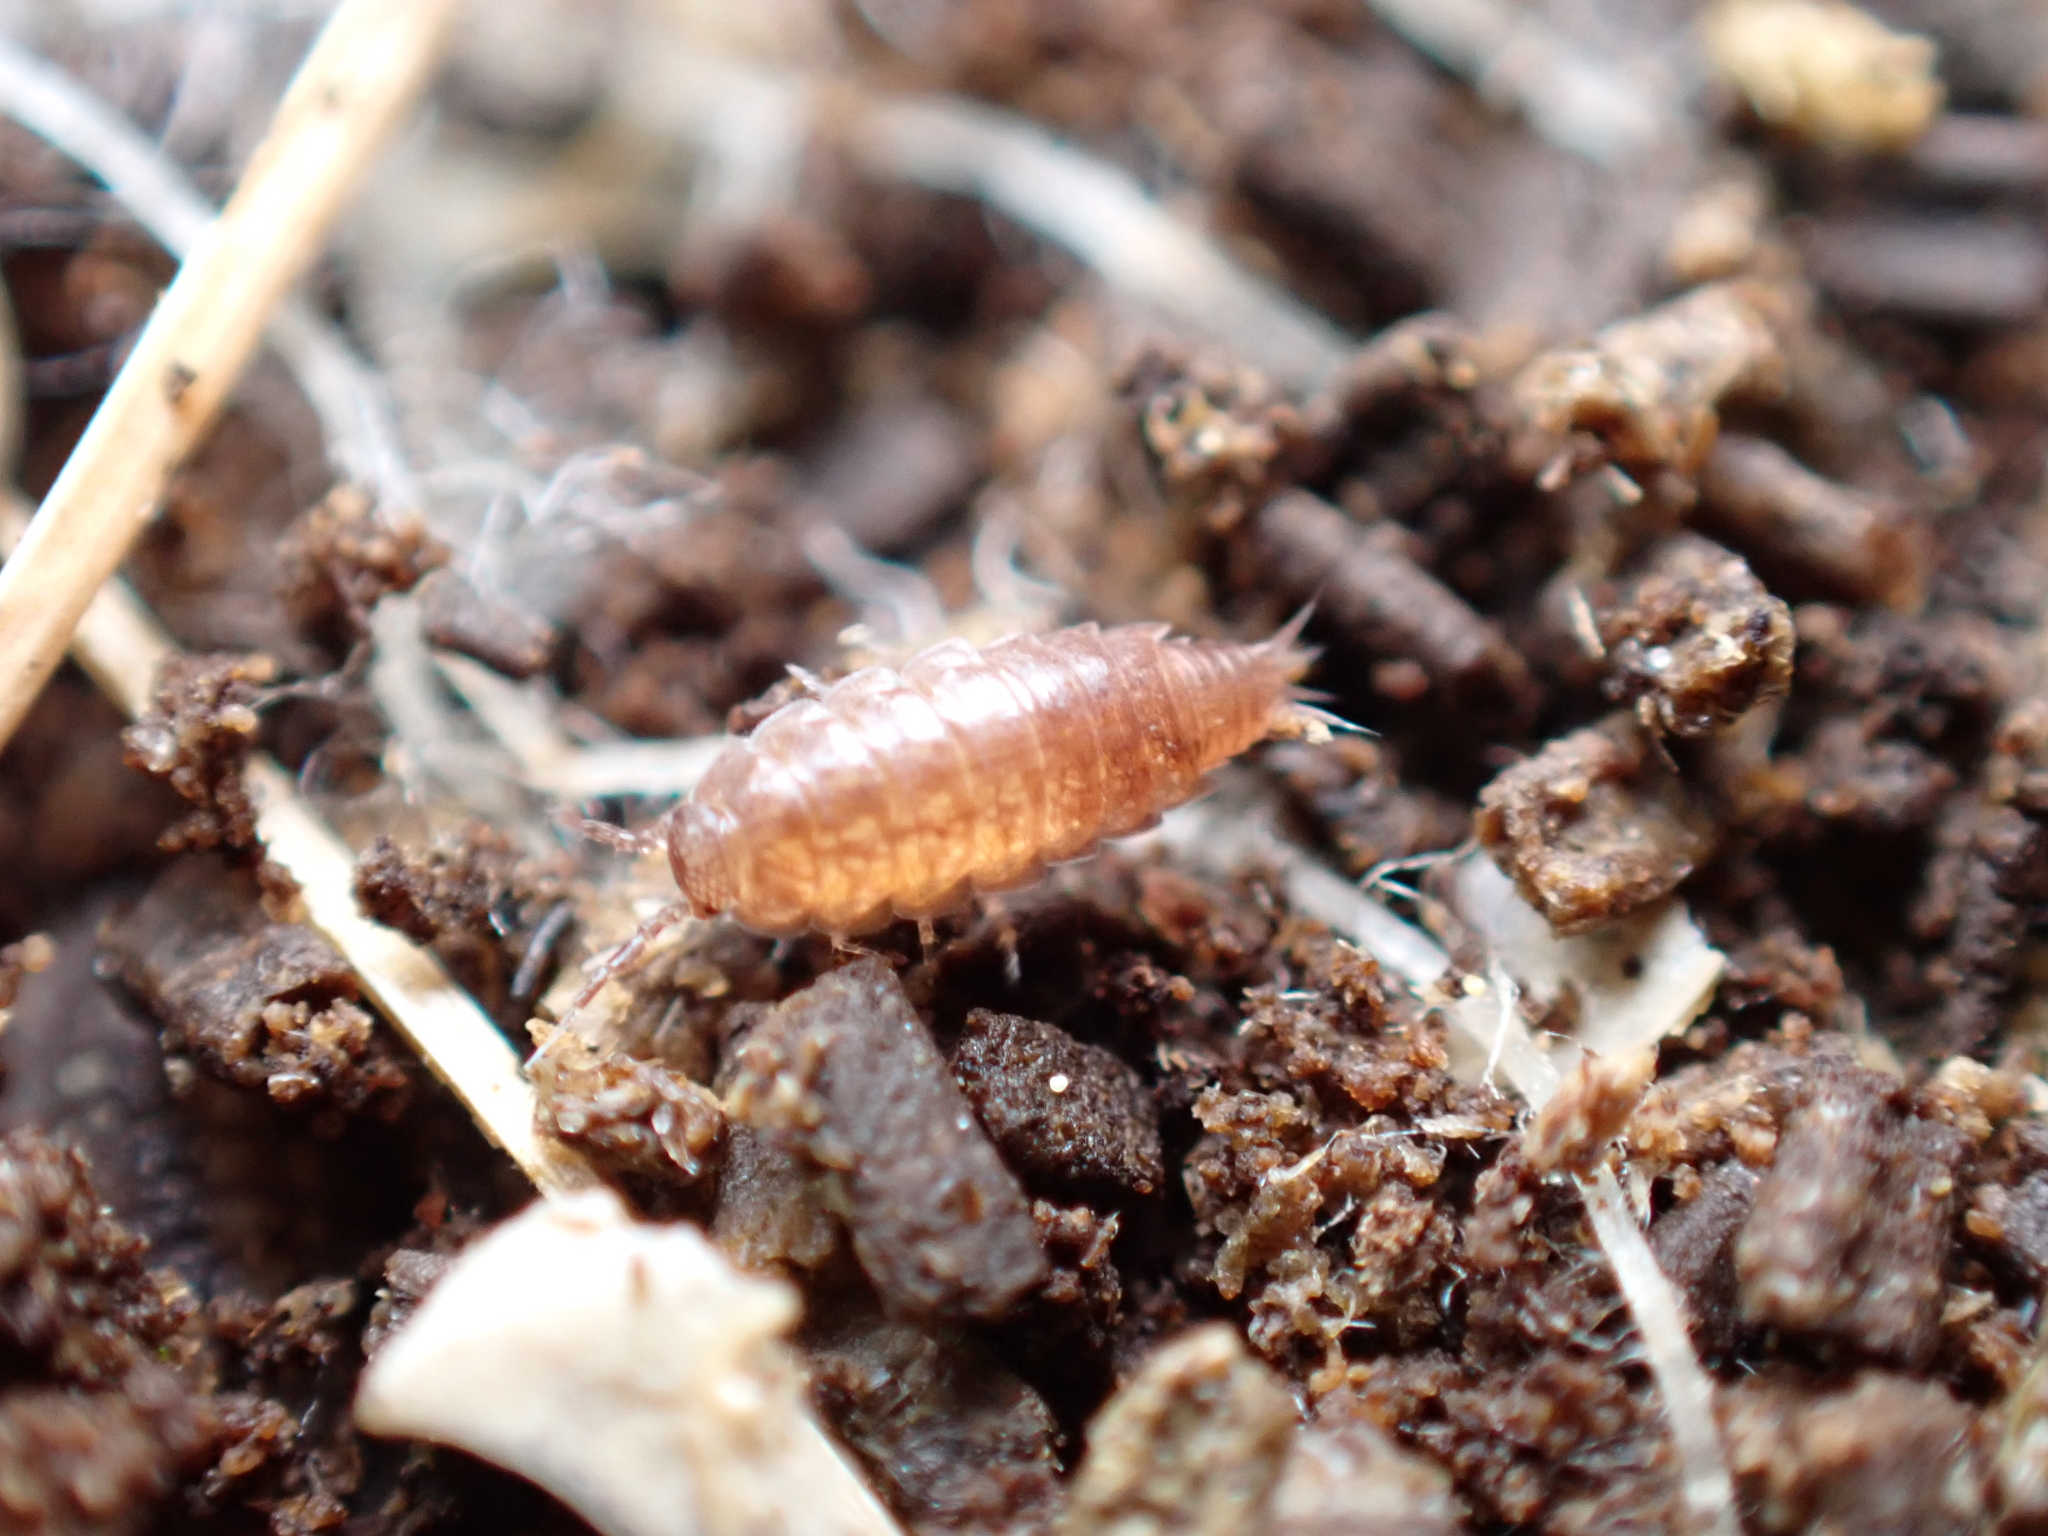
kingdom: Animalia
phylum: Arthropoda
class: Malacostraca
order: Isopoda
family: Trichoniscidae
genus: Trichoniscus
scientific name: Trichoniscus
